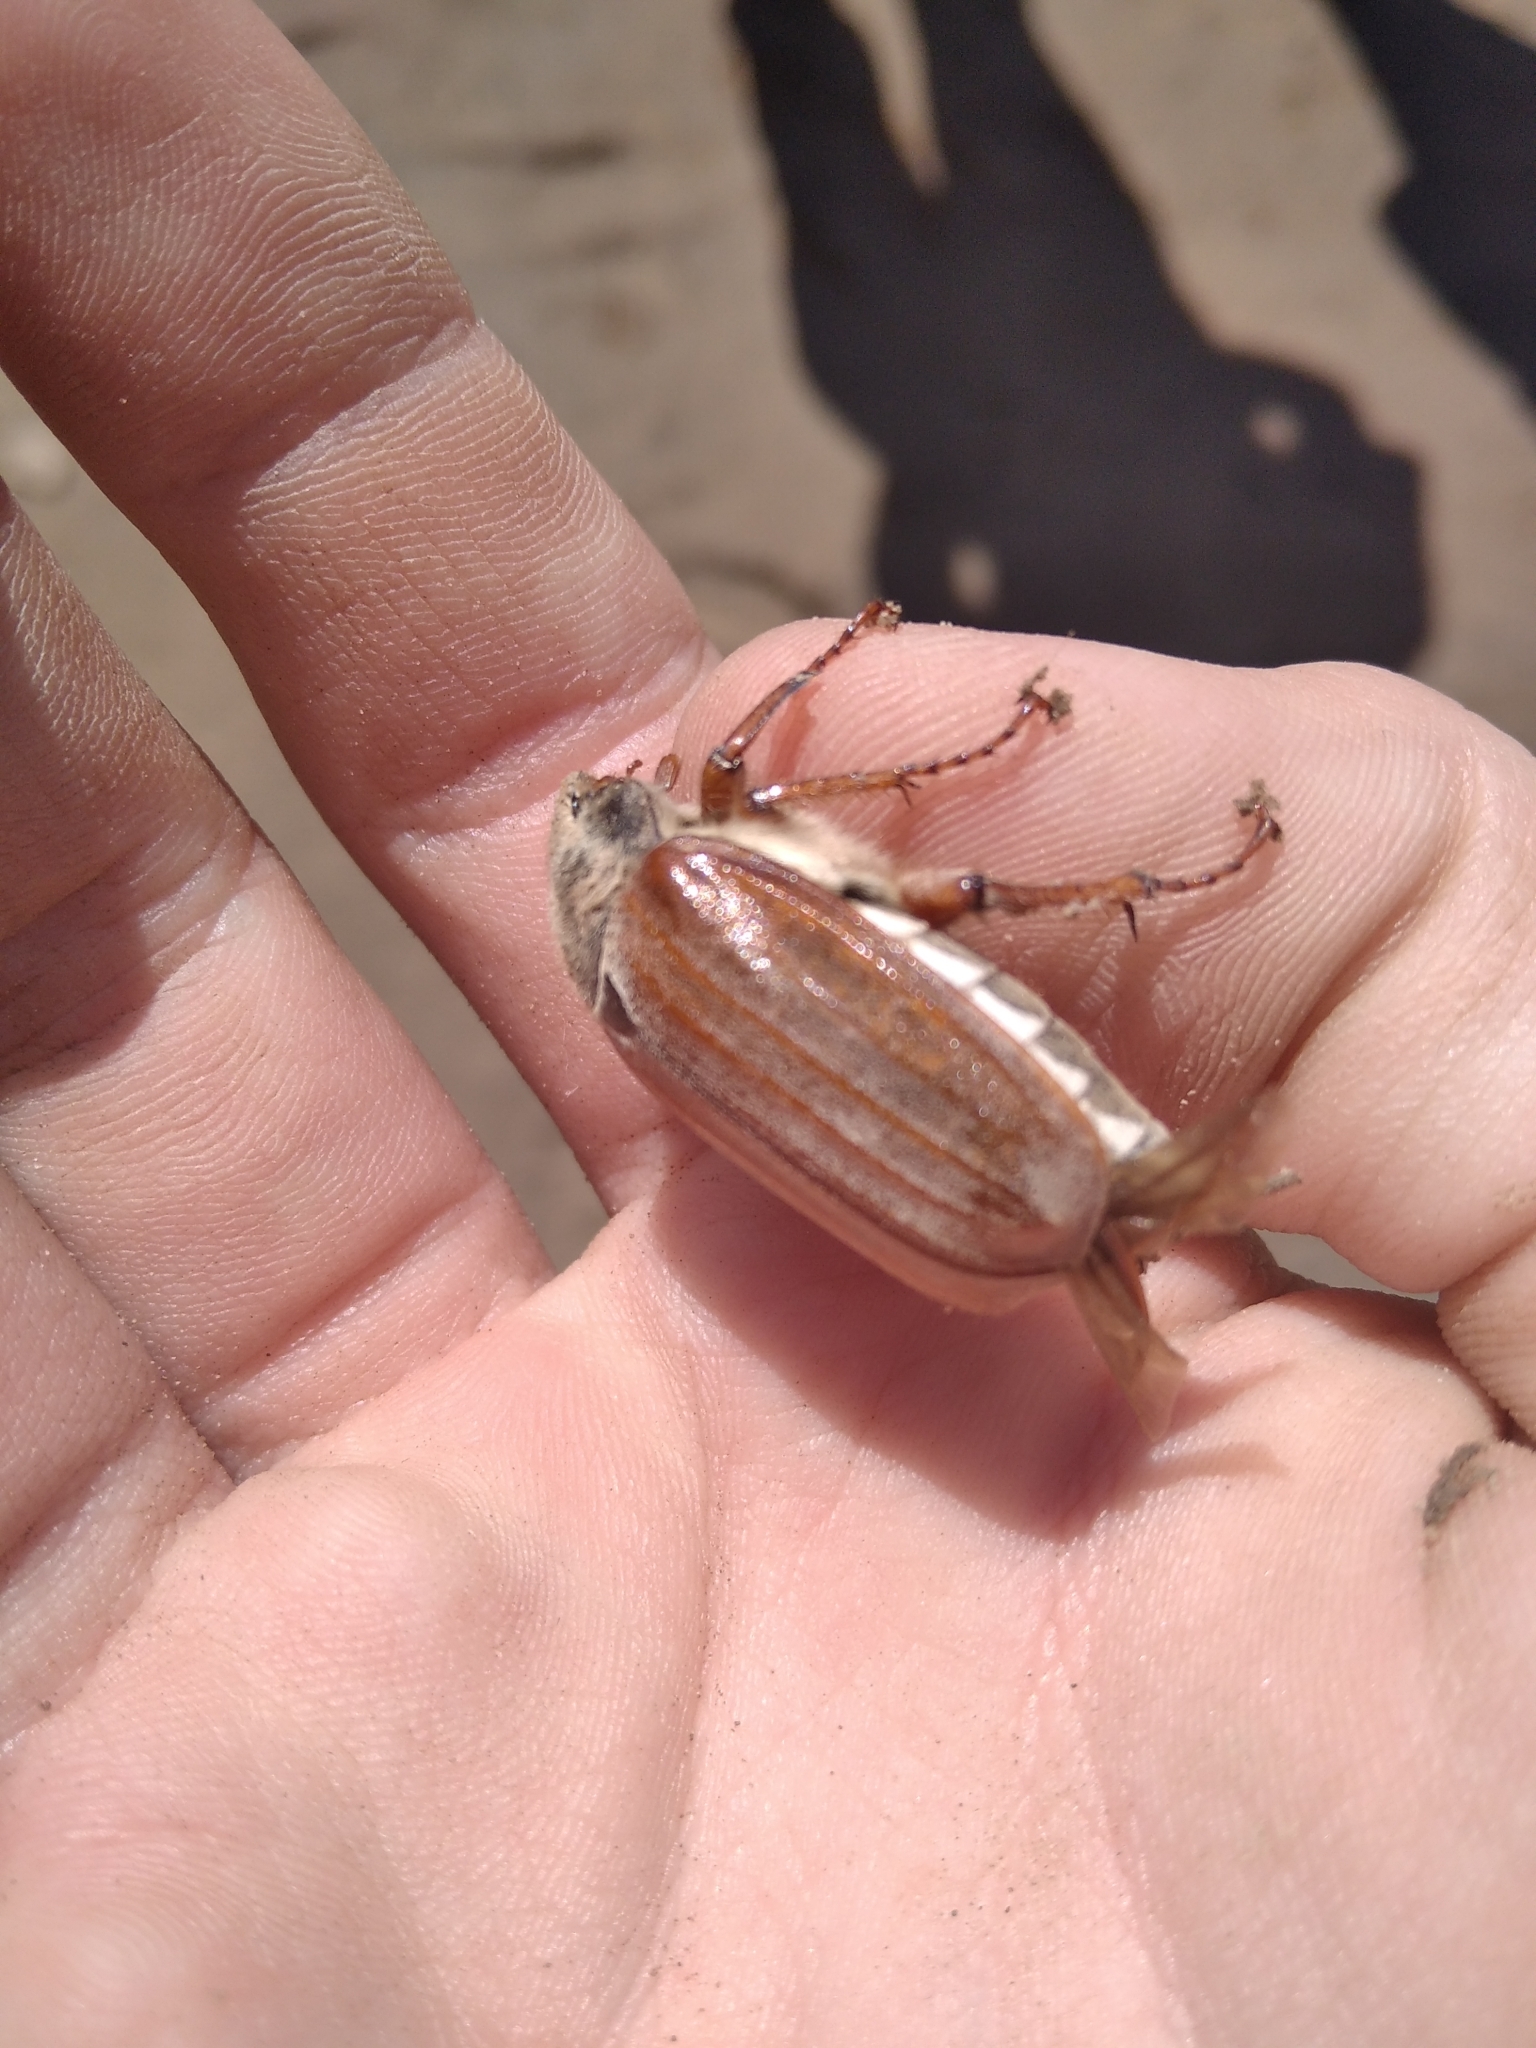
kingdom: Animalia
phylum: Arthropoda
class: Insecta
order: Coleoptera
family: Scarabaeidae
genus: Melolontha
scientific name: Melolontha melolontha
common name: Cockchafer maybeetle
